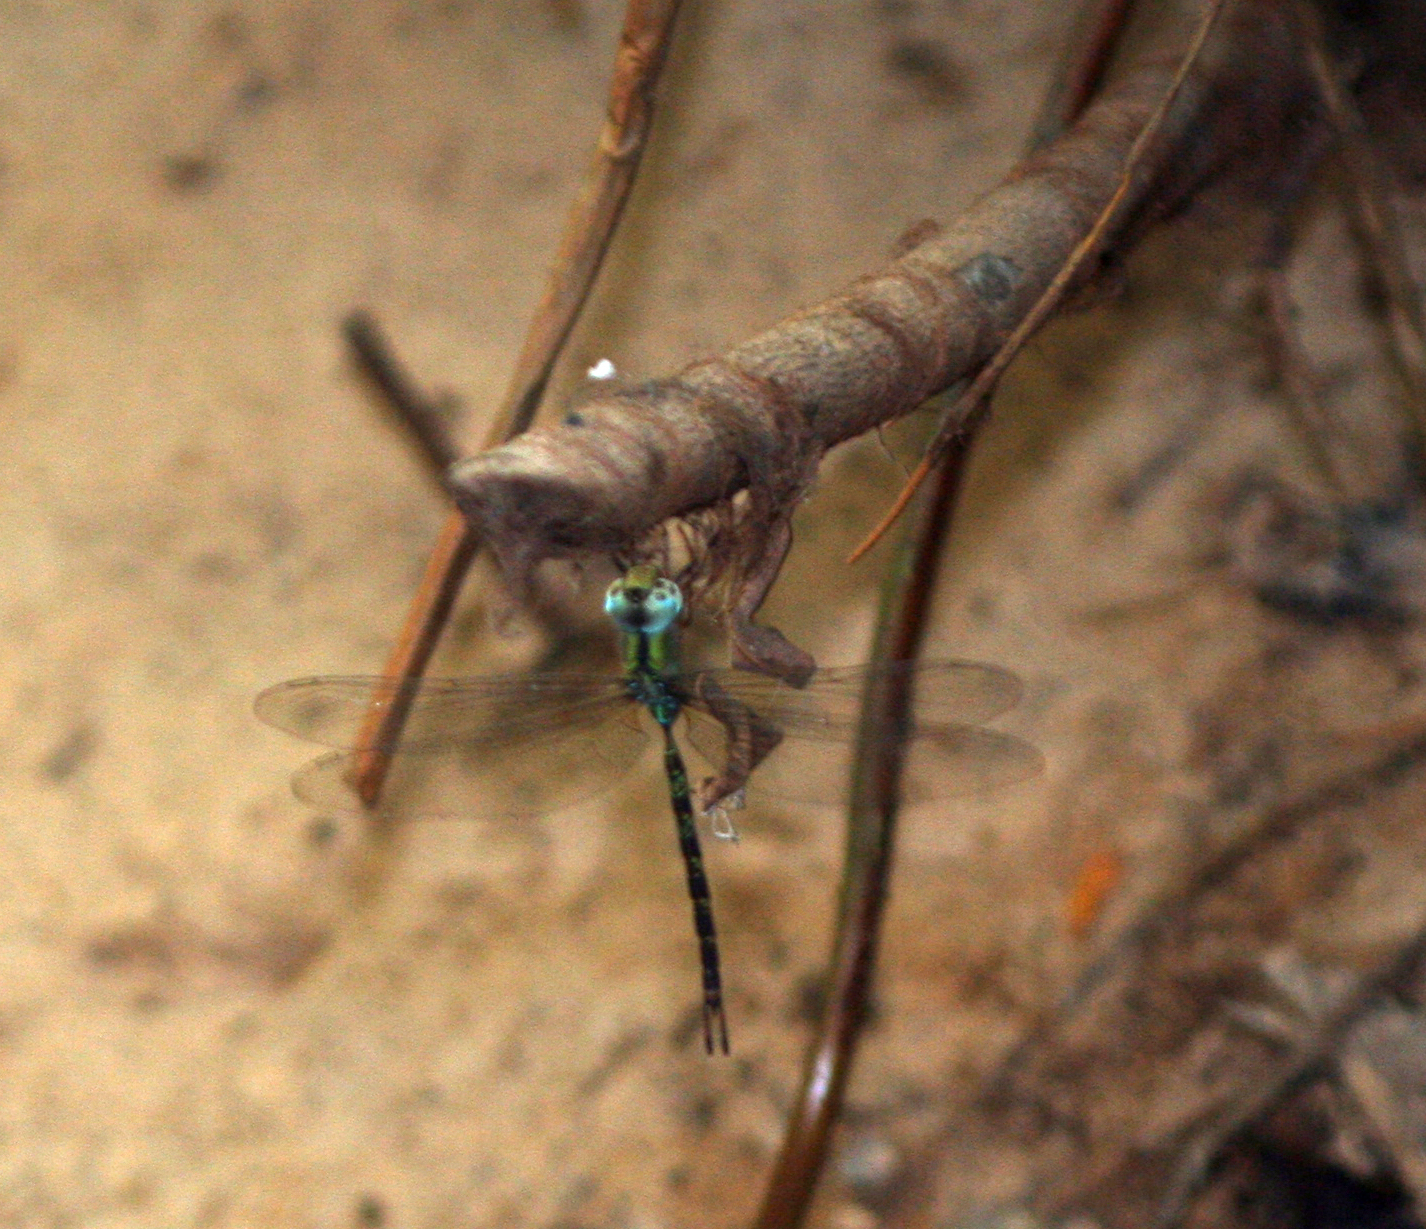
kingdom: Animalia
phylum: Arthropoda
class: Insecta
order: Odonata
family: Aeshnidae
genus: Gynacantha
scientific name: Gynacantha subinterrupta
